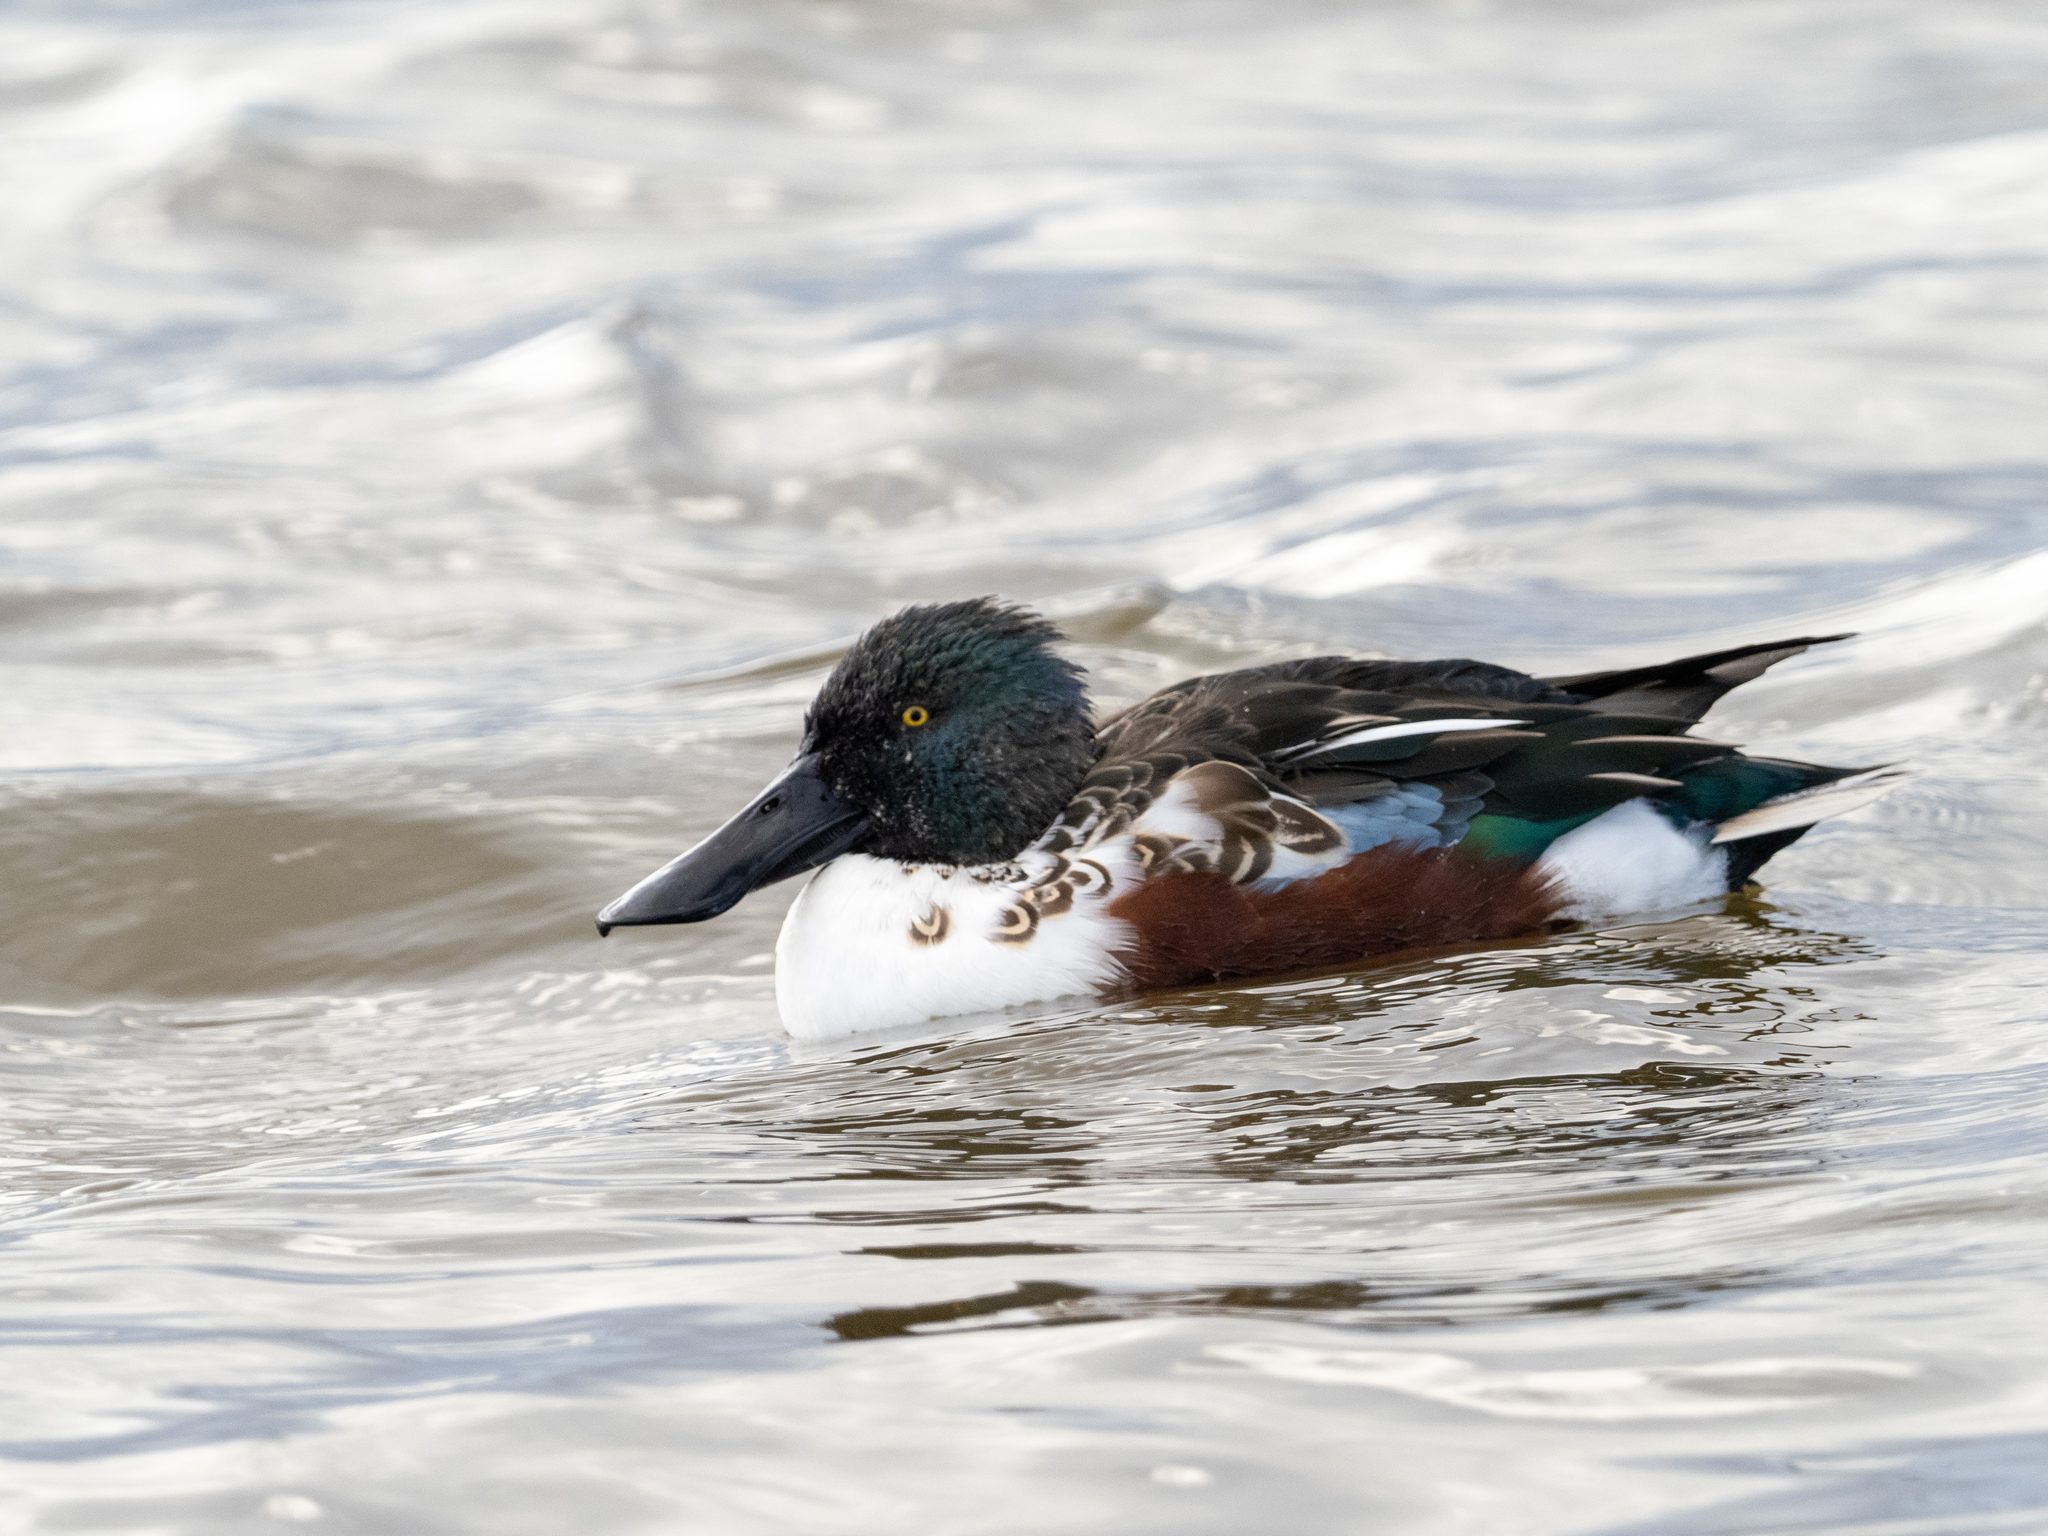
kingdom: Animalia
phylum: Chordata
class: Aves
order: Anseriformes
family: Anatidae
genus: Spatula
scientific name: Spatula clypeata
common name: Northern shoveler
